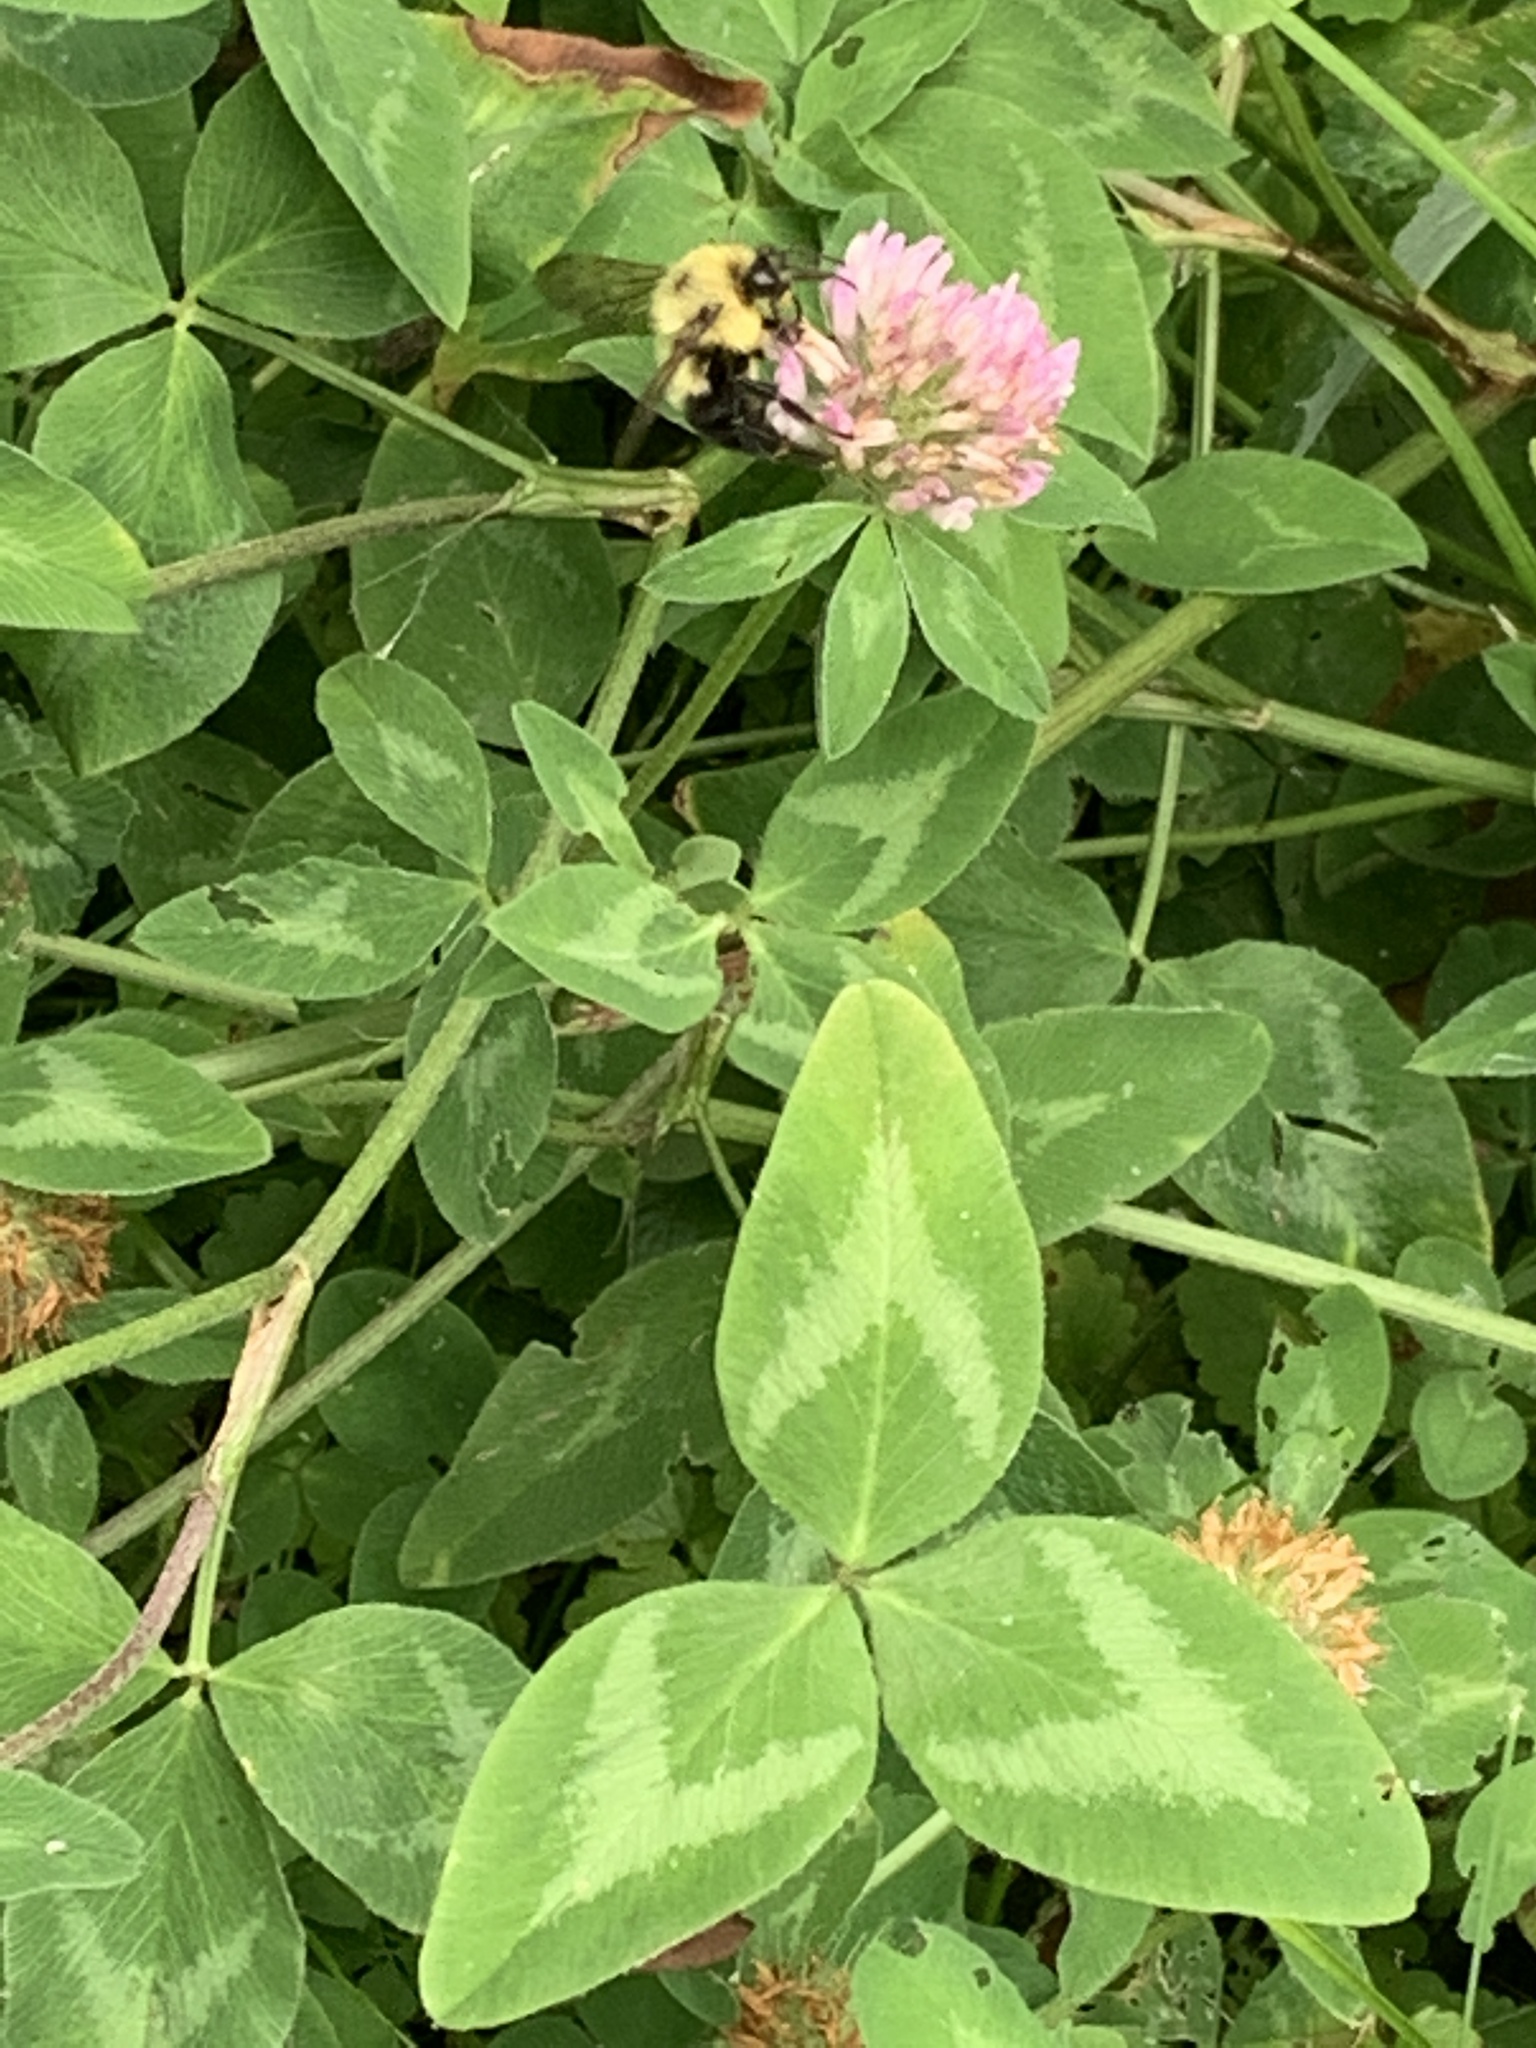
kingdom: Animalia
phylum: Arthropoda
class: Insecta
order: Hymenoptera
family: Apidae
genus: Bombus
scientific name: Bombus bimaculatus
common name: Two-spotted bumble bee
